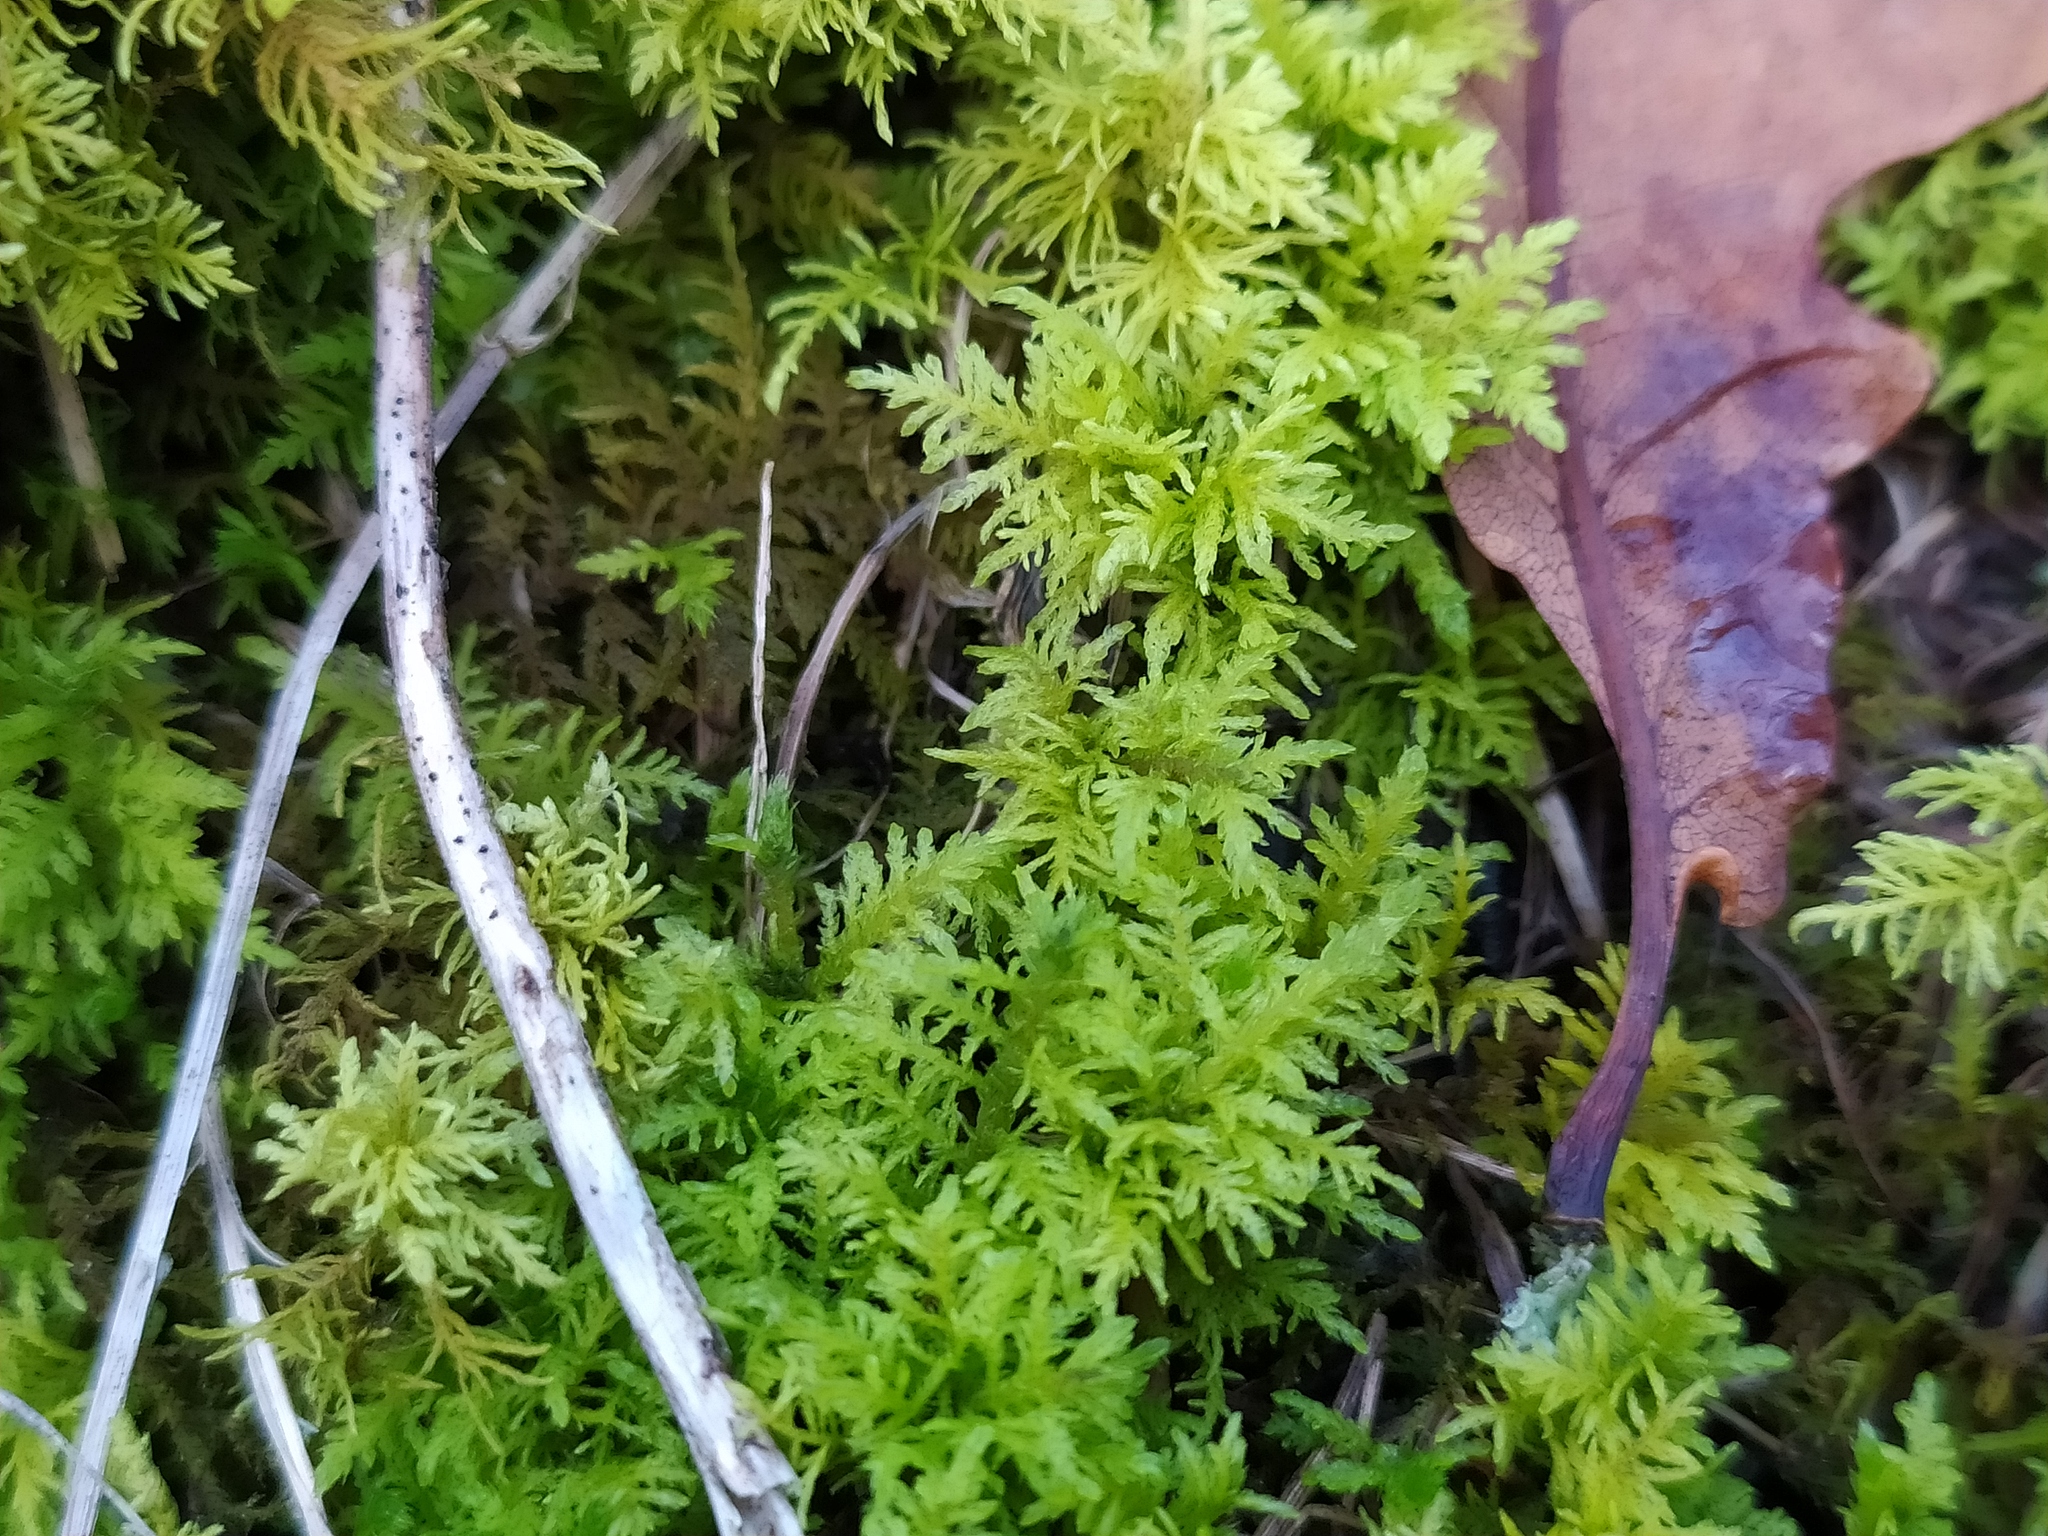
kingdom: Plantae
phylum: Bryophyta
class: Bryopsida
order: Hypnales
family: Thuidiaceae
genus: Thuidium
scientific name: Thuidium assimile
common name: Philibert's fern moss
